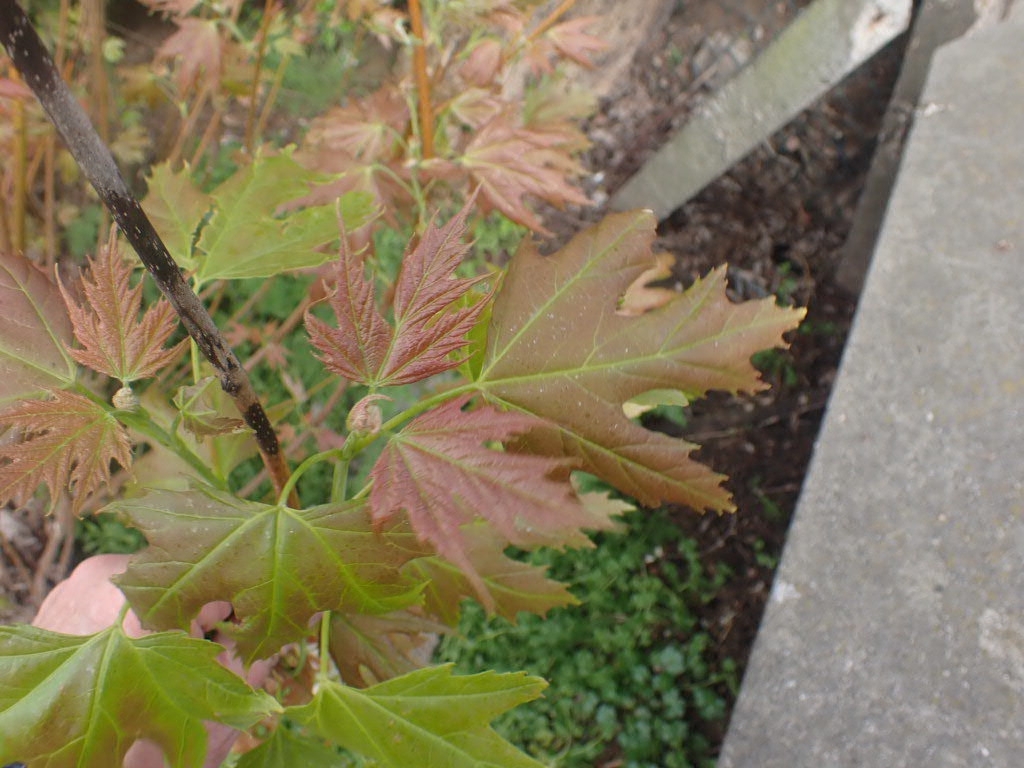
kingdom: Plantae
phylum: Tracheophyta
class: Magnoliopsida
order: Sapindales
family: Sapindaceae
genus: Acer
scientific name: Acer saccharinum
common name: Silver maple
